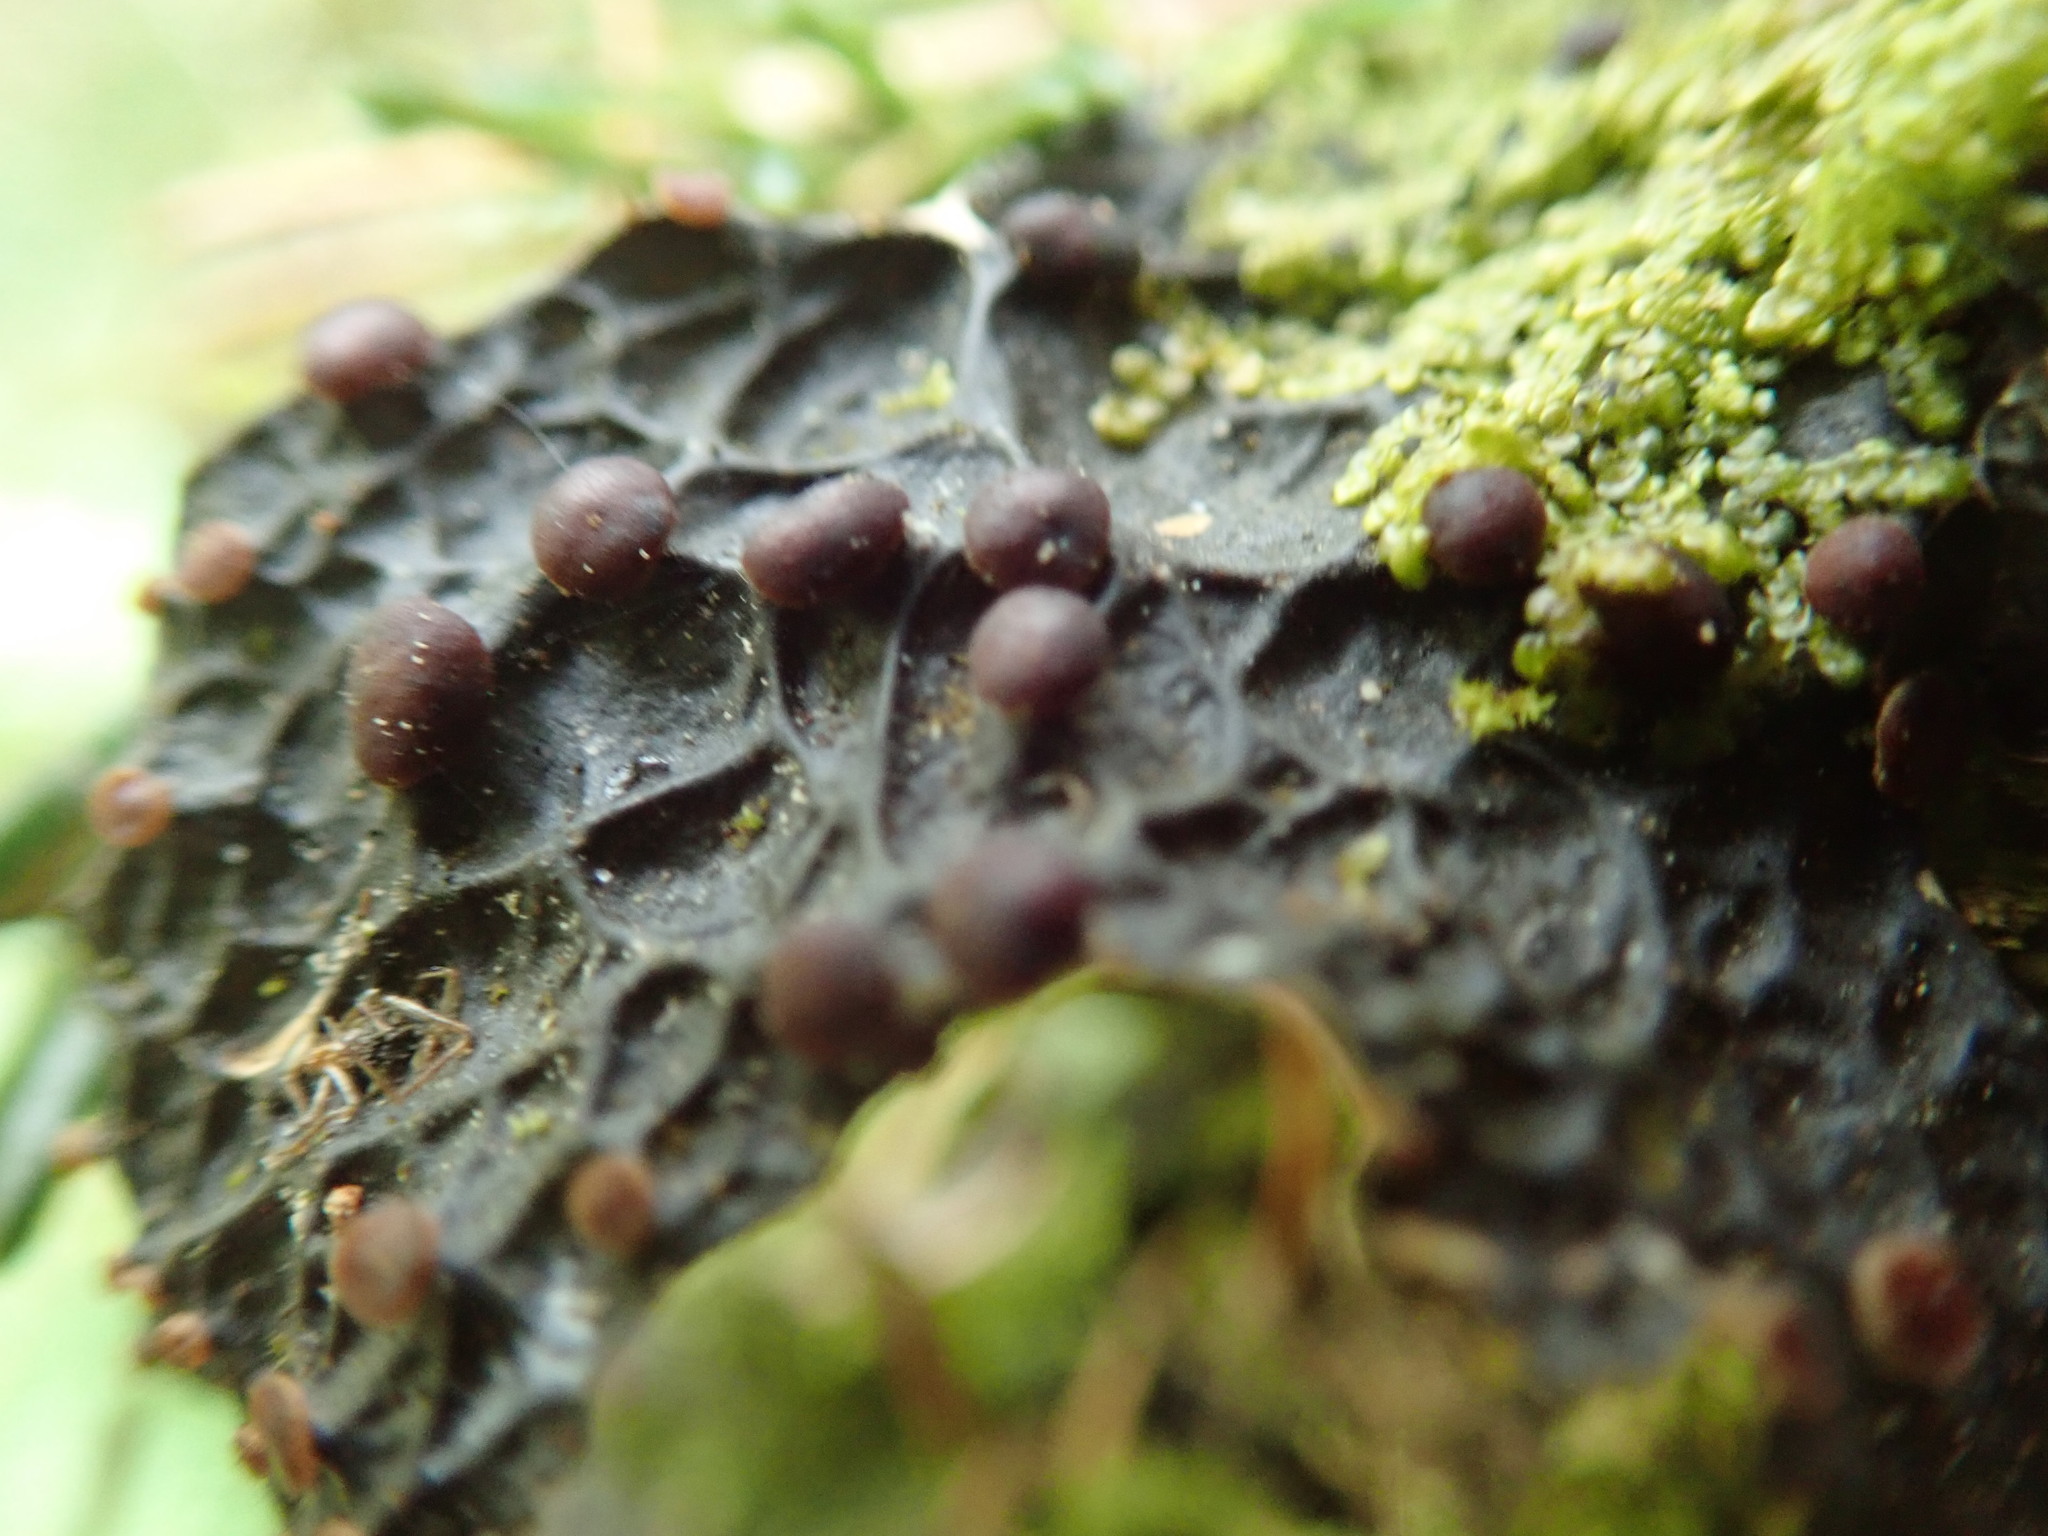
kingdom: Fungi
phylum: Ascomycota
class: Lecanoromycetes
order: Peltigerales
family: Lobariaceae
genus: Lobaria
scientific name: Lobaria anthraspis
